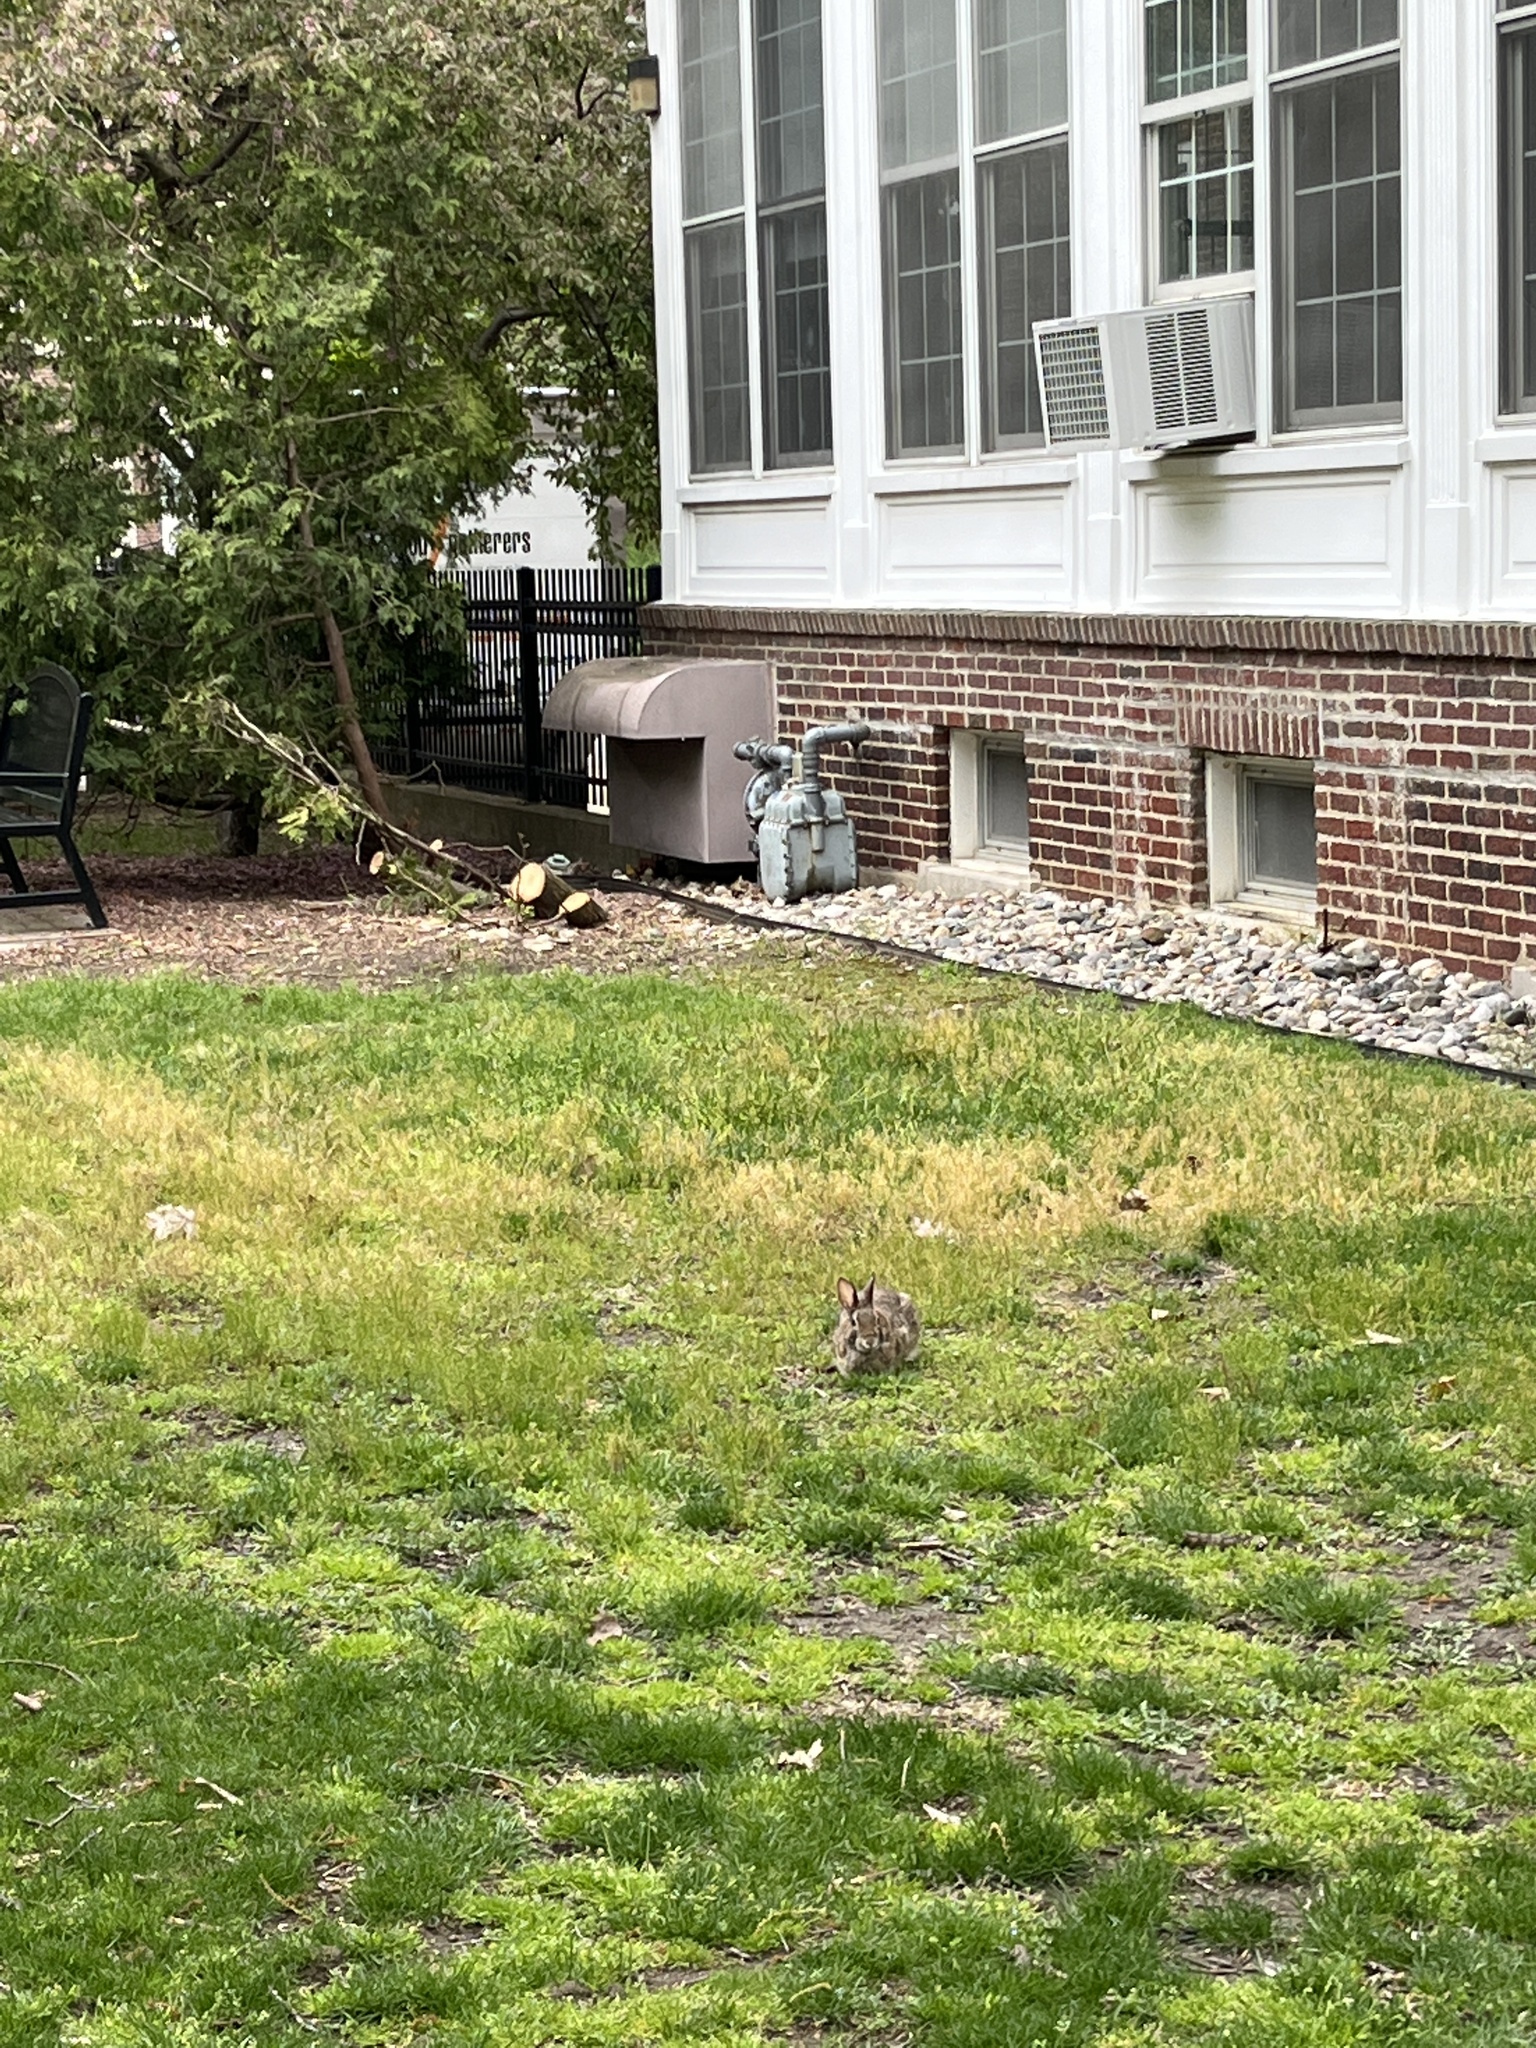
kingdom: Animalia
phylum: Chordata
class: Mammalia
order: Lagomorpha
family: Leporidae
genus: Sylvilagus
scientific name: Sylvilagus floridanus
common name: Eastern cottontail
